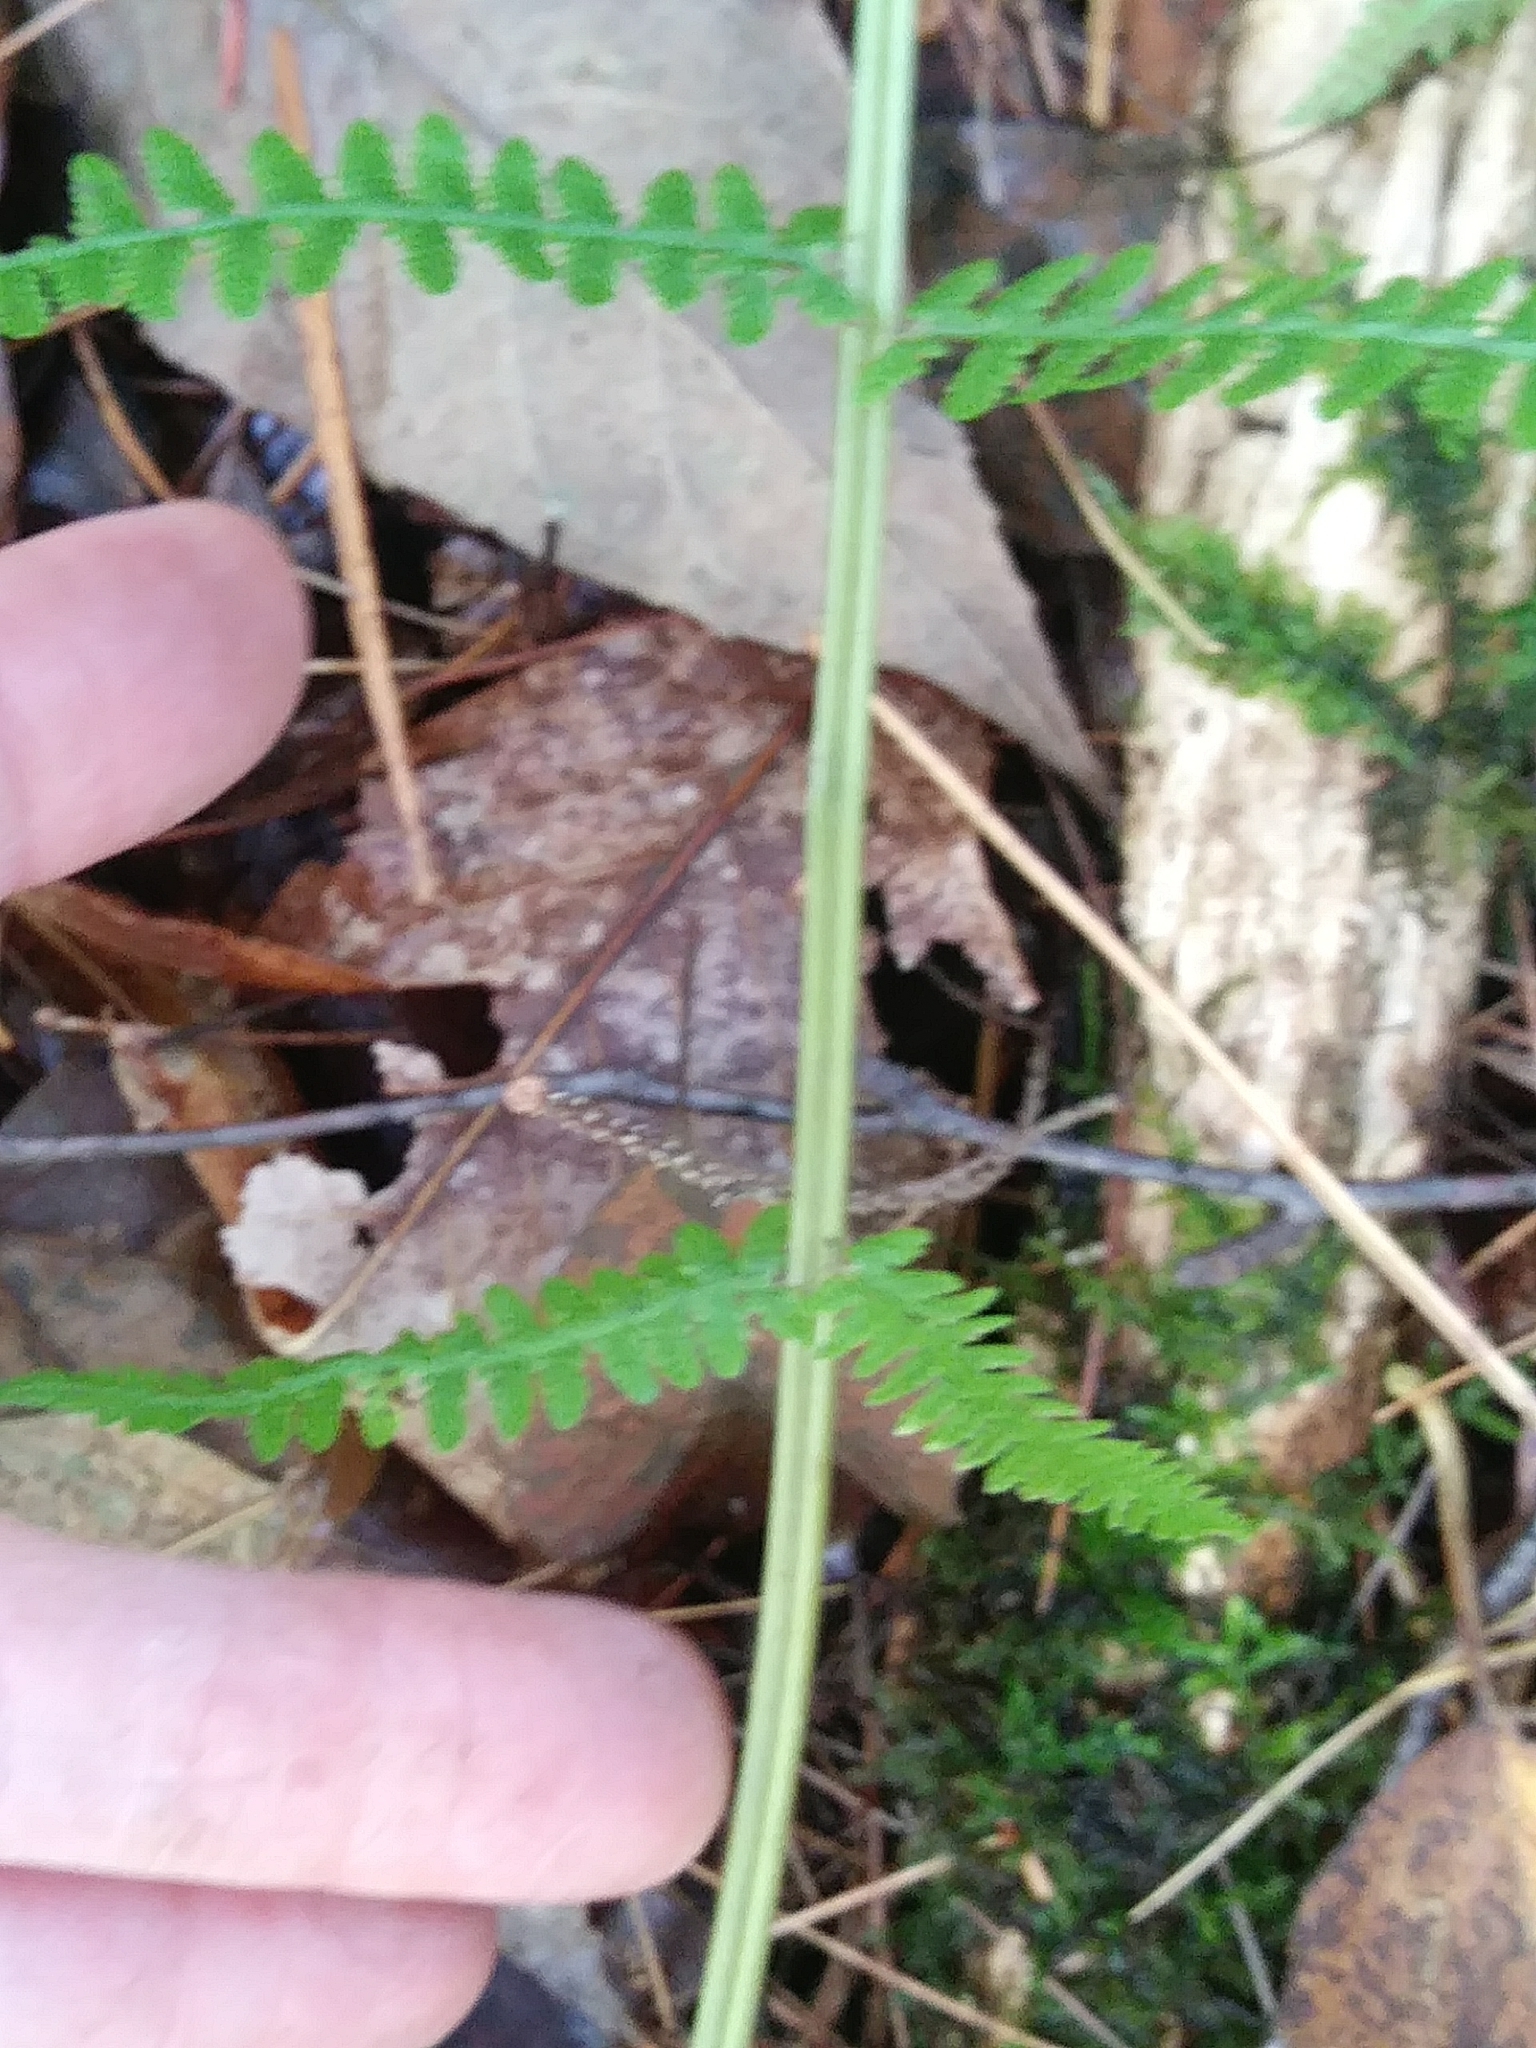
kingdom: Plantae
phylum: Tracheophyta
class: Polypodiopsida
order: Polypodiales
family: Athyriaceae
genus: Athyrium
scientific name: Athyrium angustum
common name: Northern lady fern
